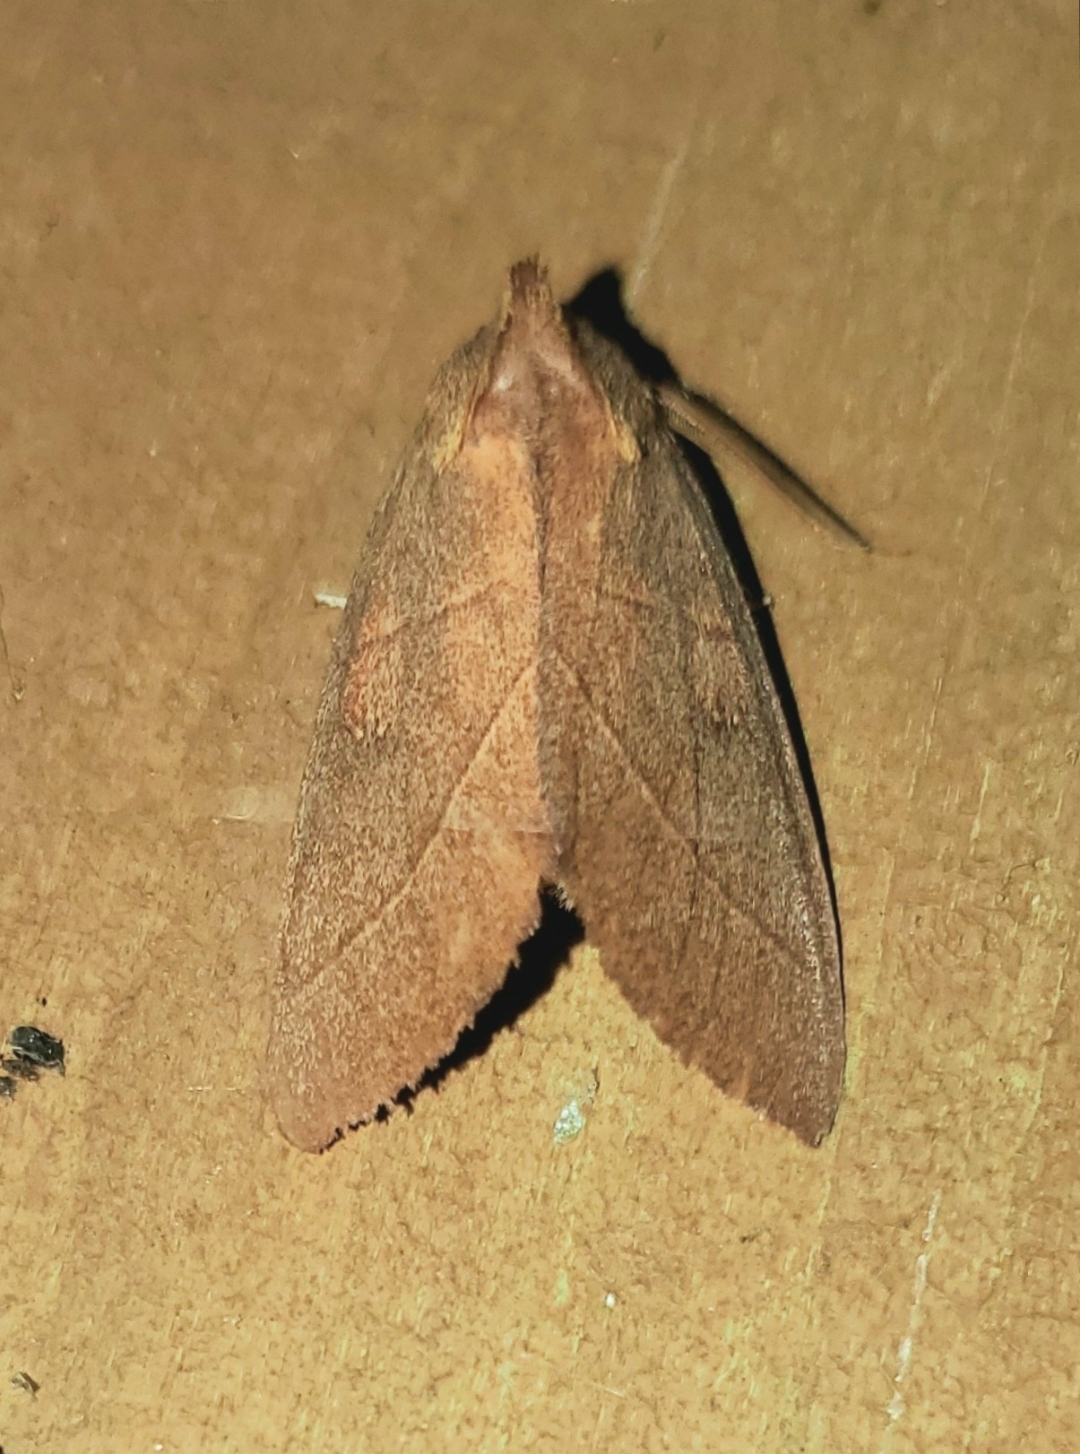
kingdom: Animalia
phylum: Arthropoda
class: Insecta
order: Lepidoptera
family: Notodontidae
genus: Nadata
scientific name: Nadata gibbosa
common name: White-dotted prominent
